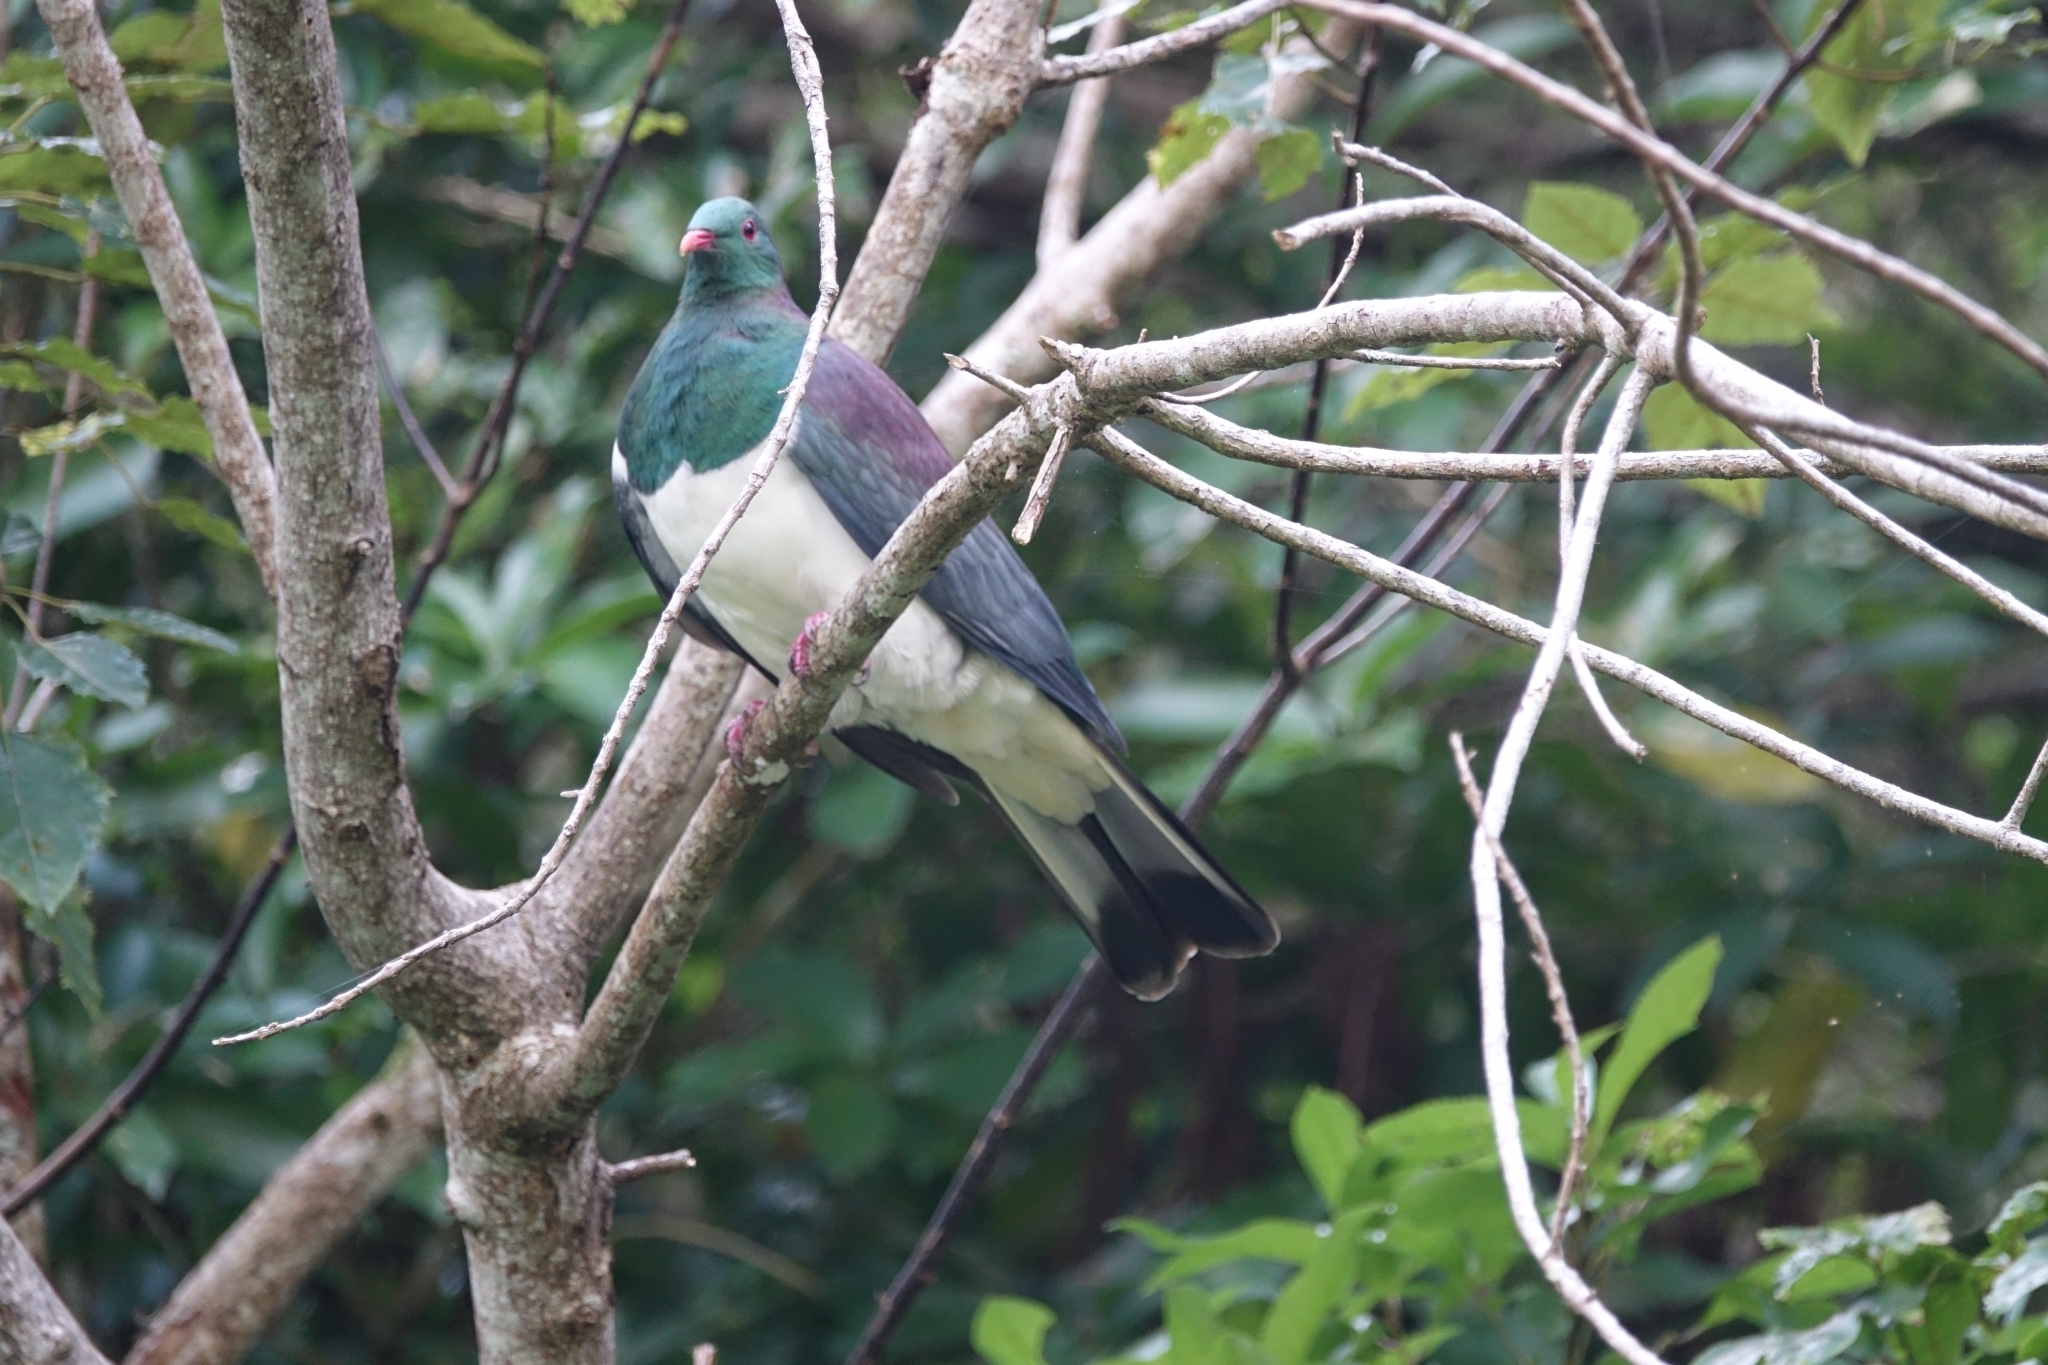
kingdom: Animalia
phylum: Chordata
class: Aves
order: Columbiformes
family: Columbidae
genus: Hemiphaga
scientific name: Hemiphaga novaeseelandiae
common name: New zealand pigeon
